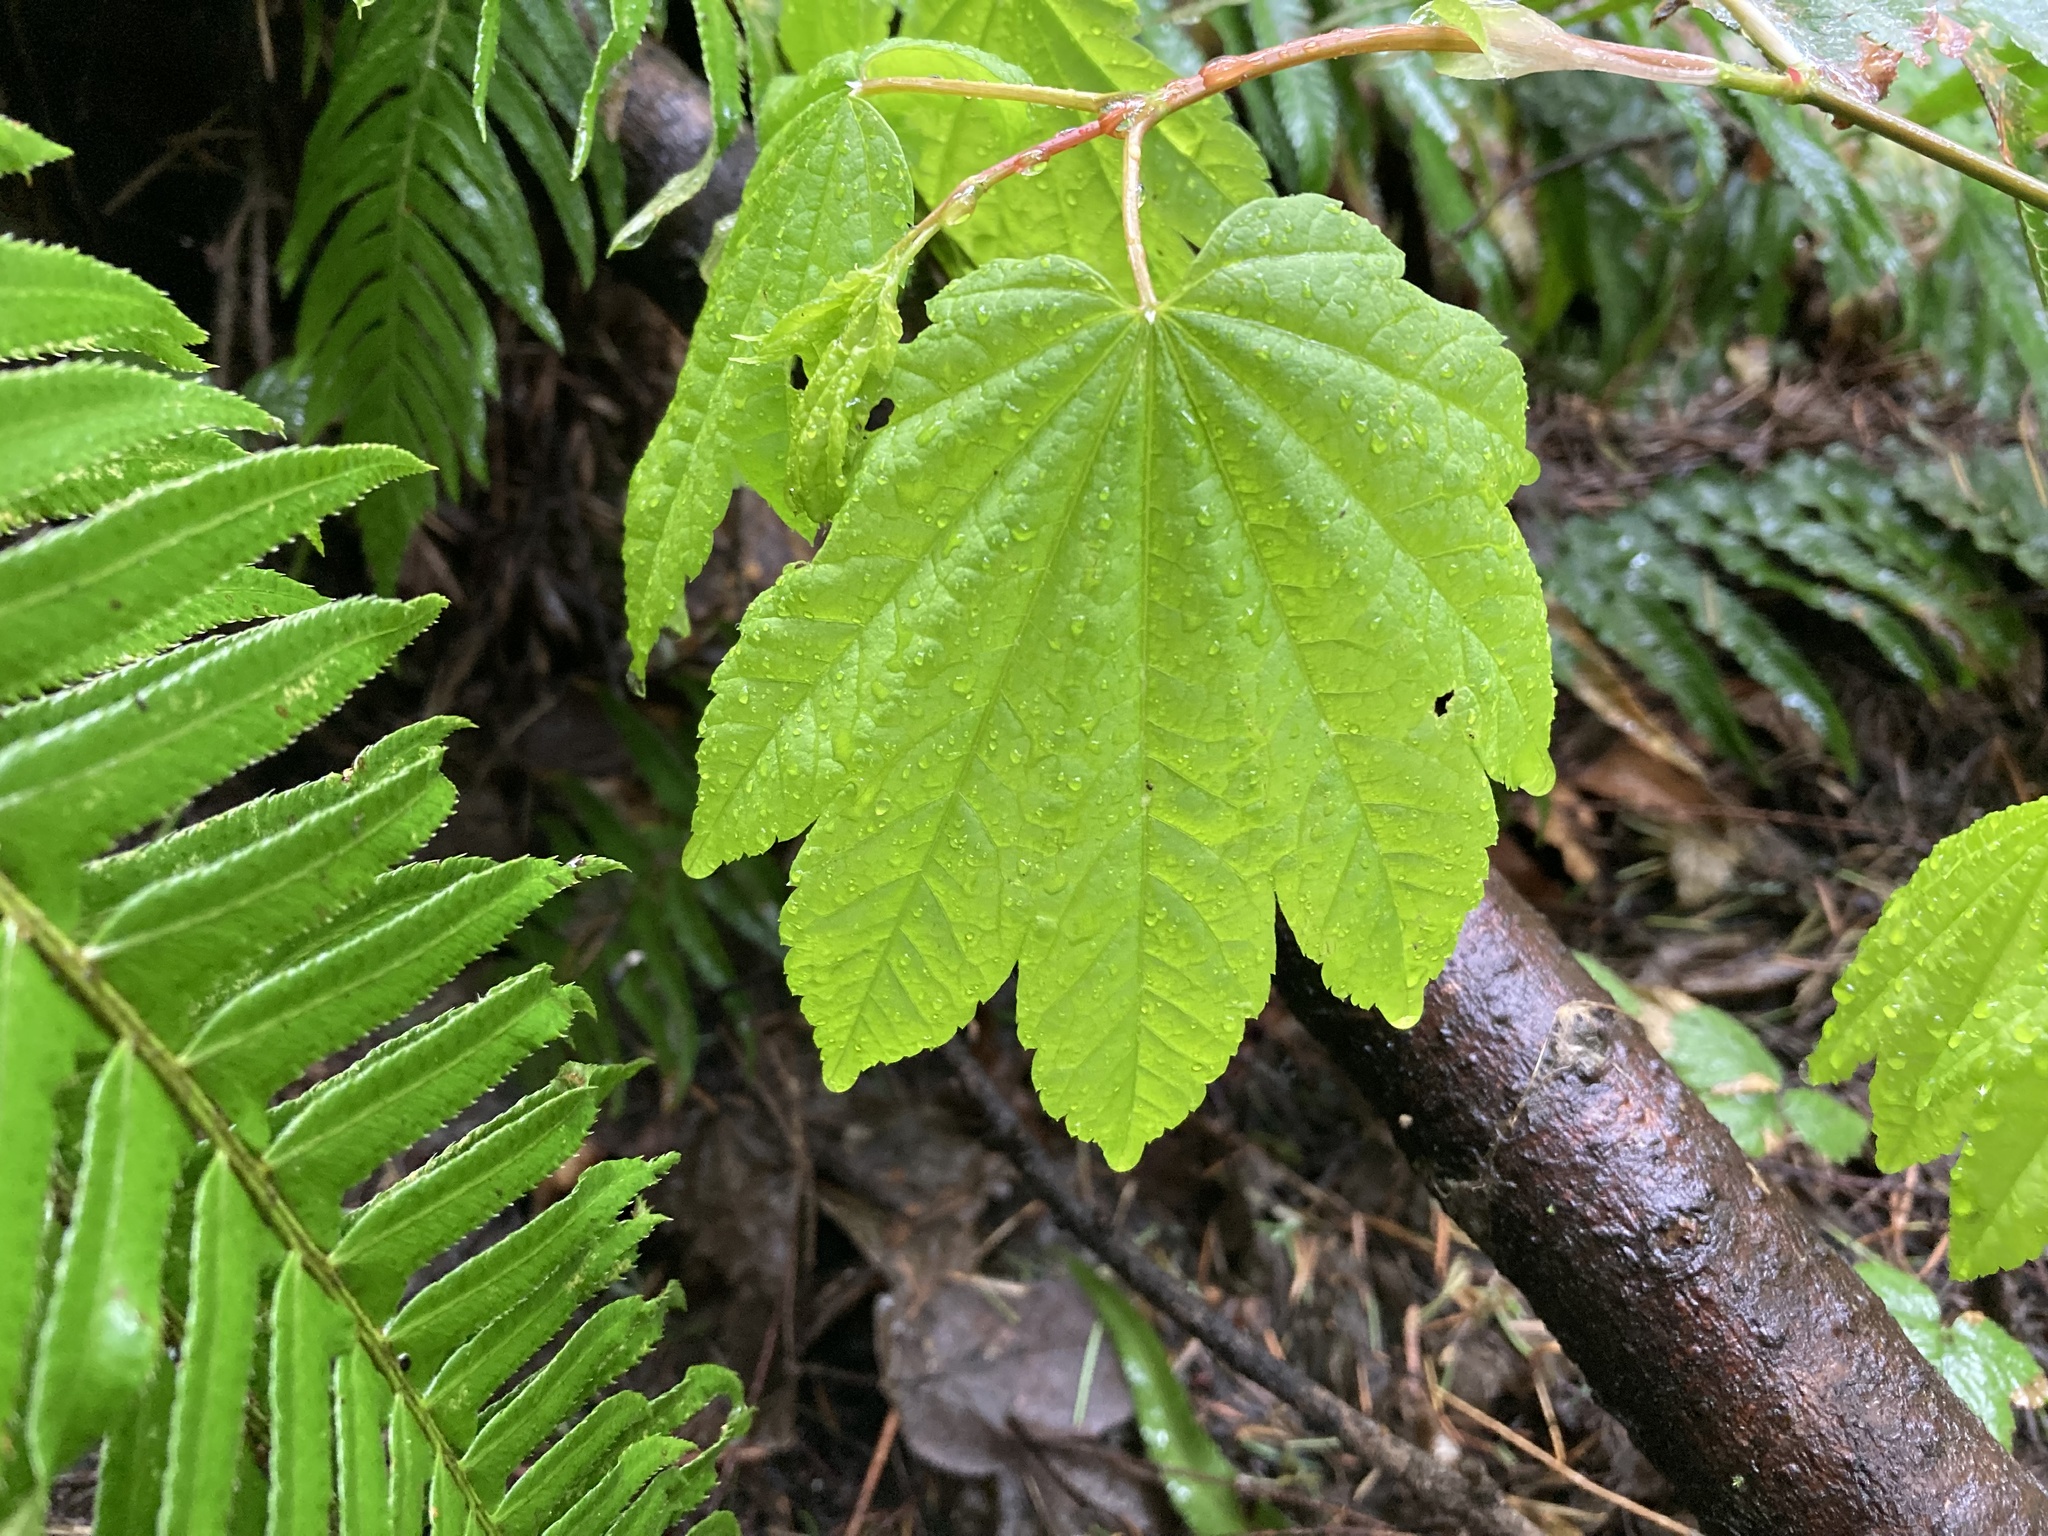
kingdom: Plantae
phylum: Tracheophyta
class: Magnoliopsida
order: Sapindales
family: Sapindaceae
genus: Acer
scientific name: Acer circinatum
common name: Vine maple
